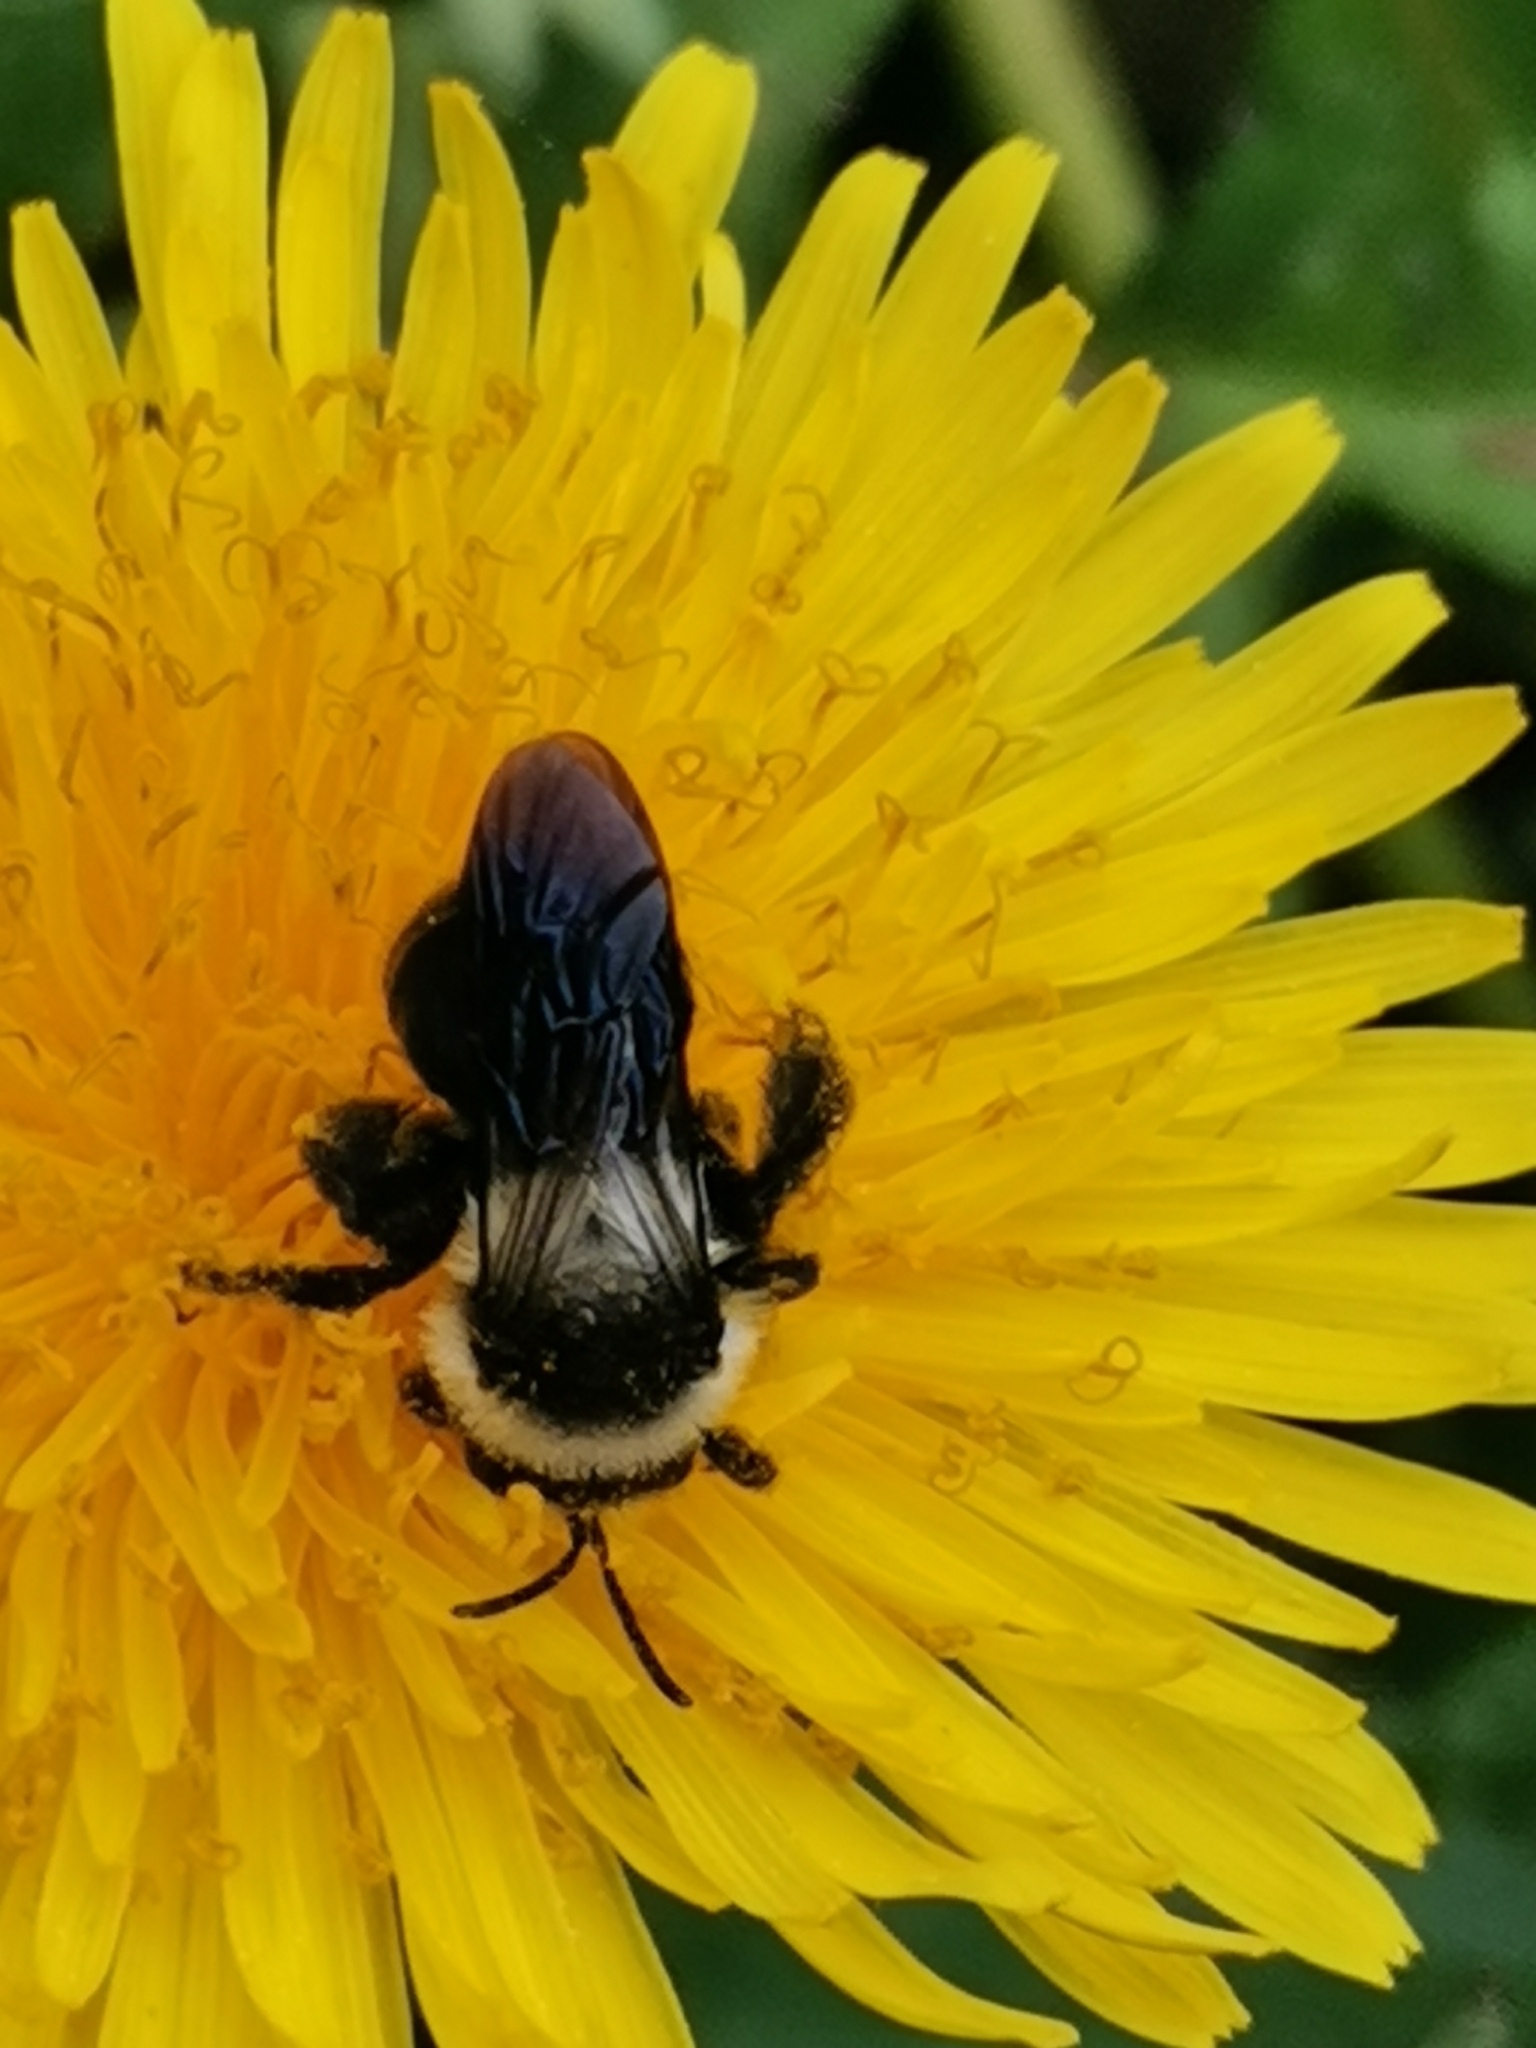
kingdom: Animalia
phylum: Arthropoda
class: Insecta
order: Hymenoptera
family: Andrenidae
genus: Andrena
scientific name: Andrena cineraria
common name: Ashy mining bee
